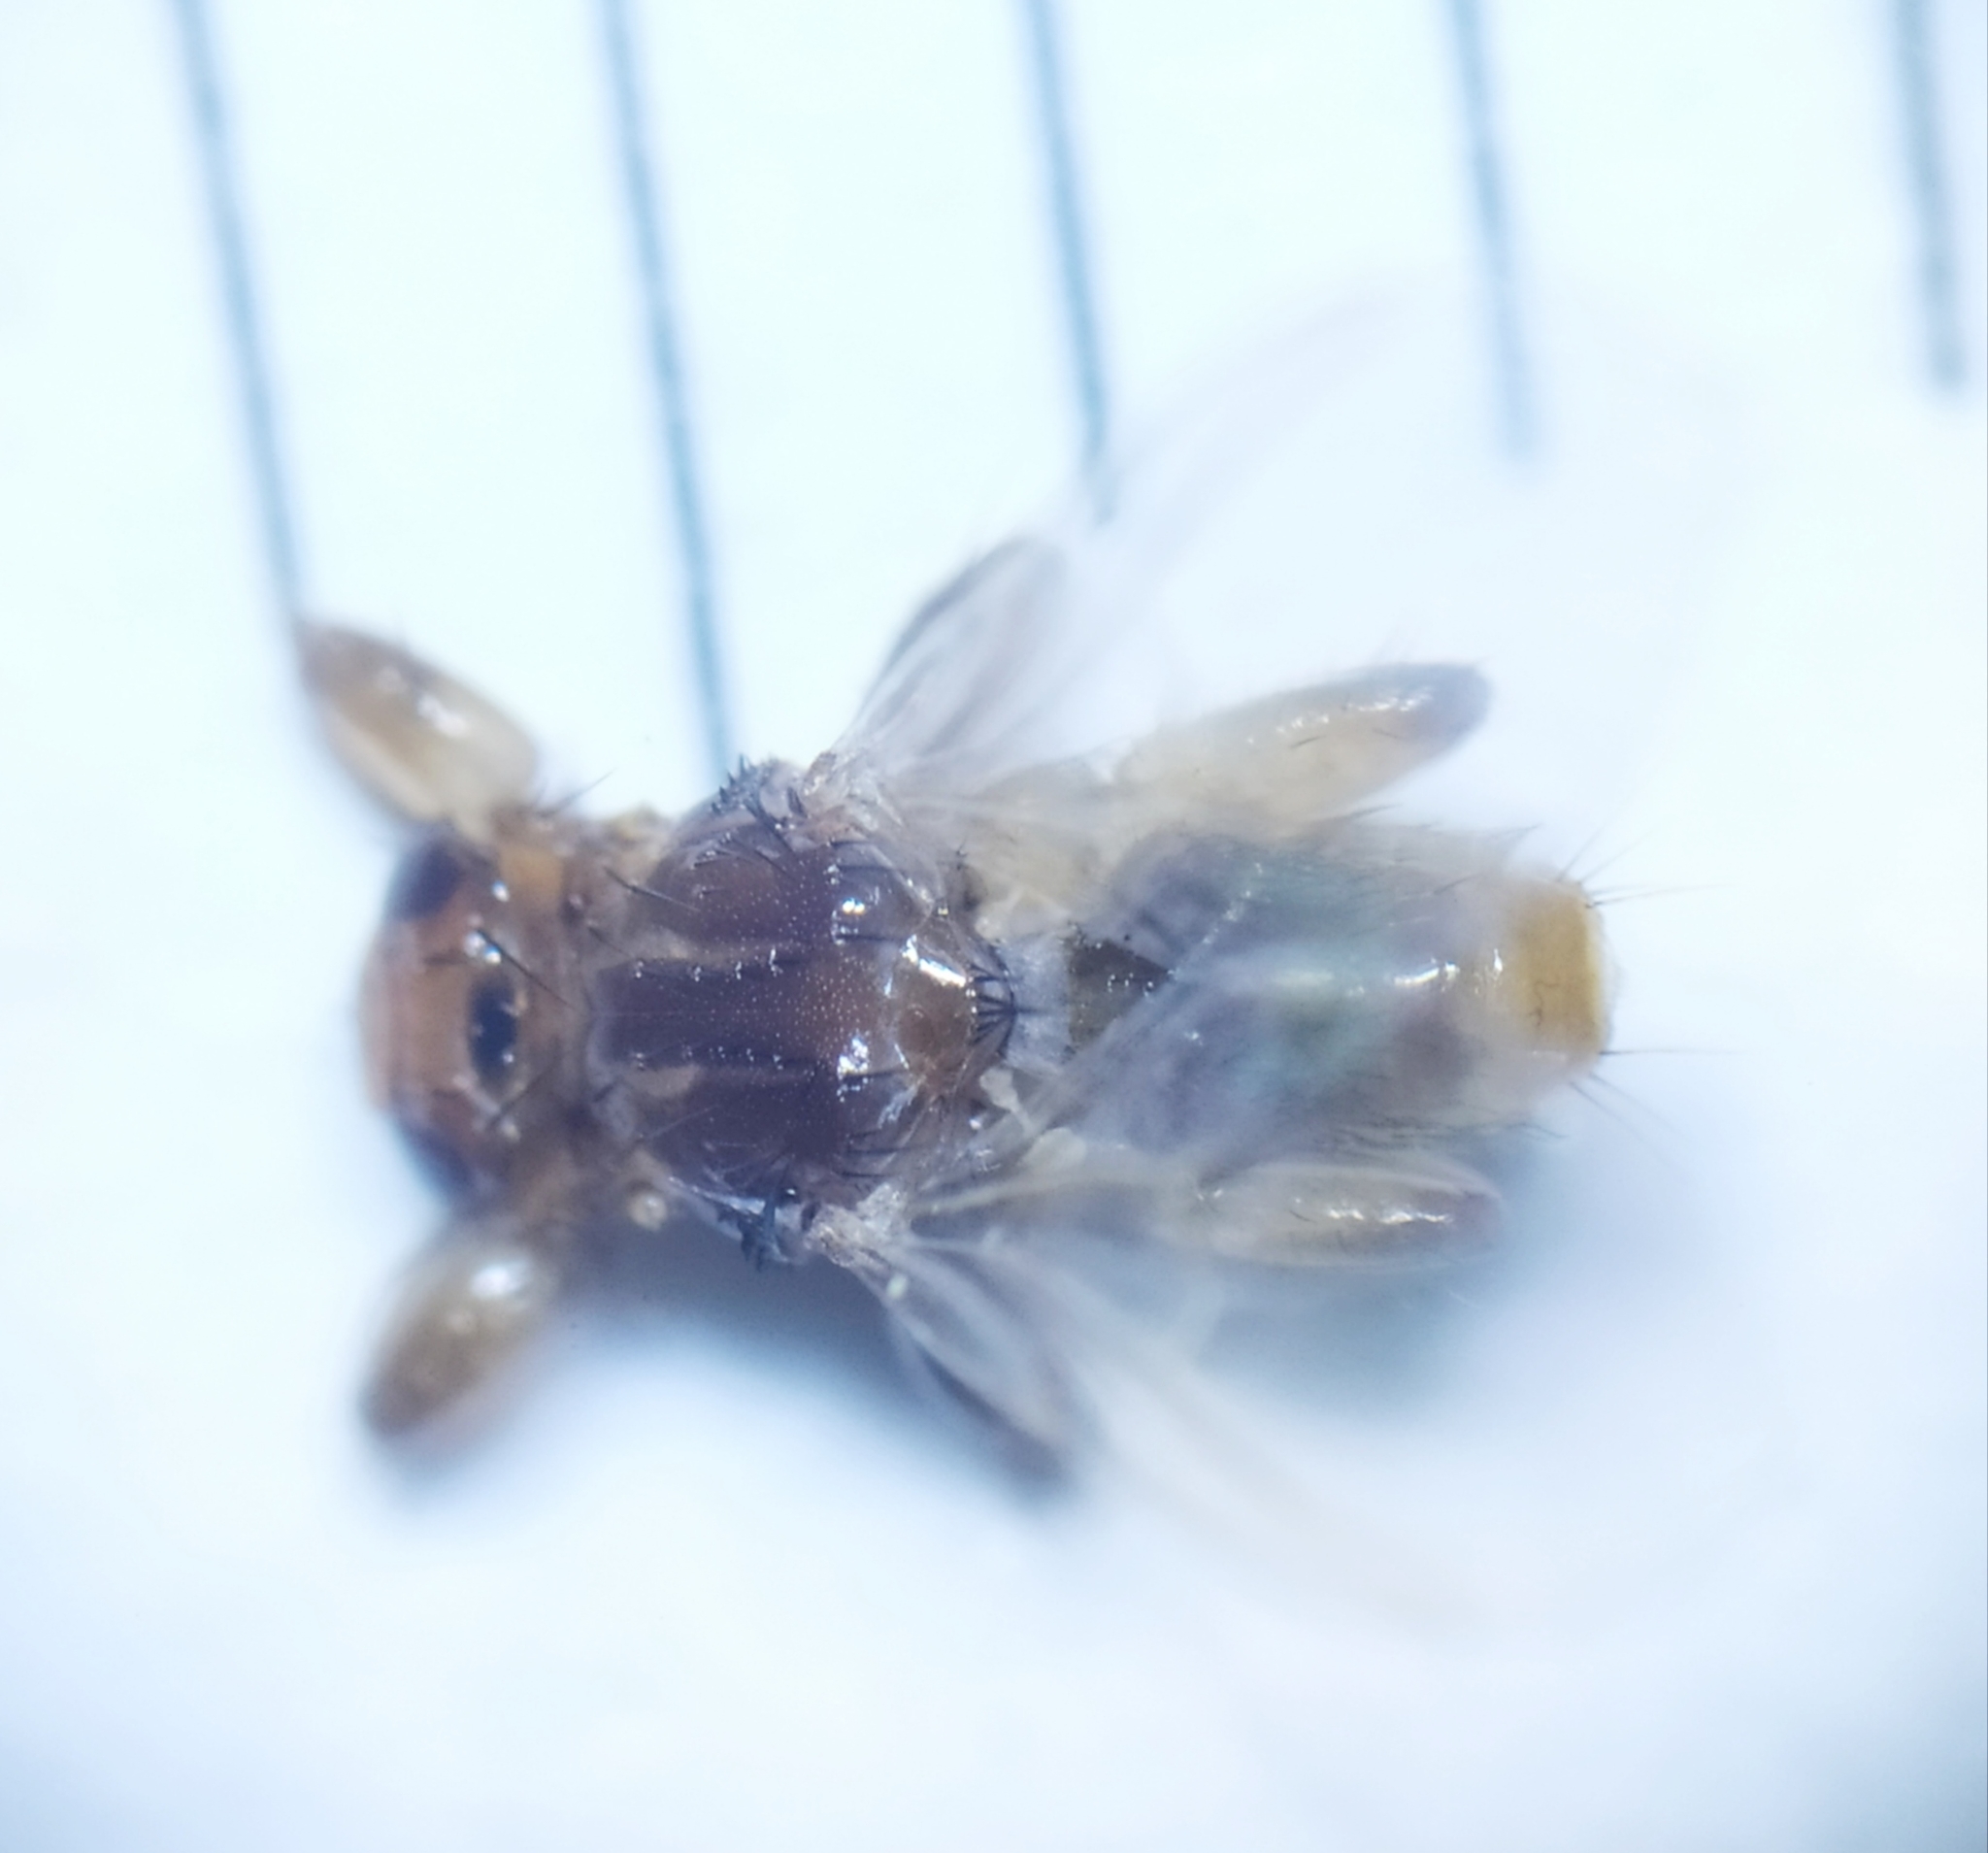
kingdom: Animalia
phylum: Arthropoda
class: Insecta
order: Diptera
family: Hippoboscidae
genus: Lipoptena
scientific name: Lipoptena fortisetosa
